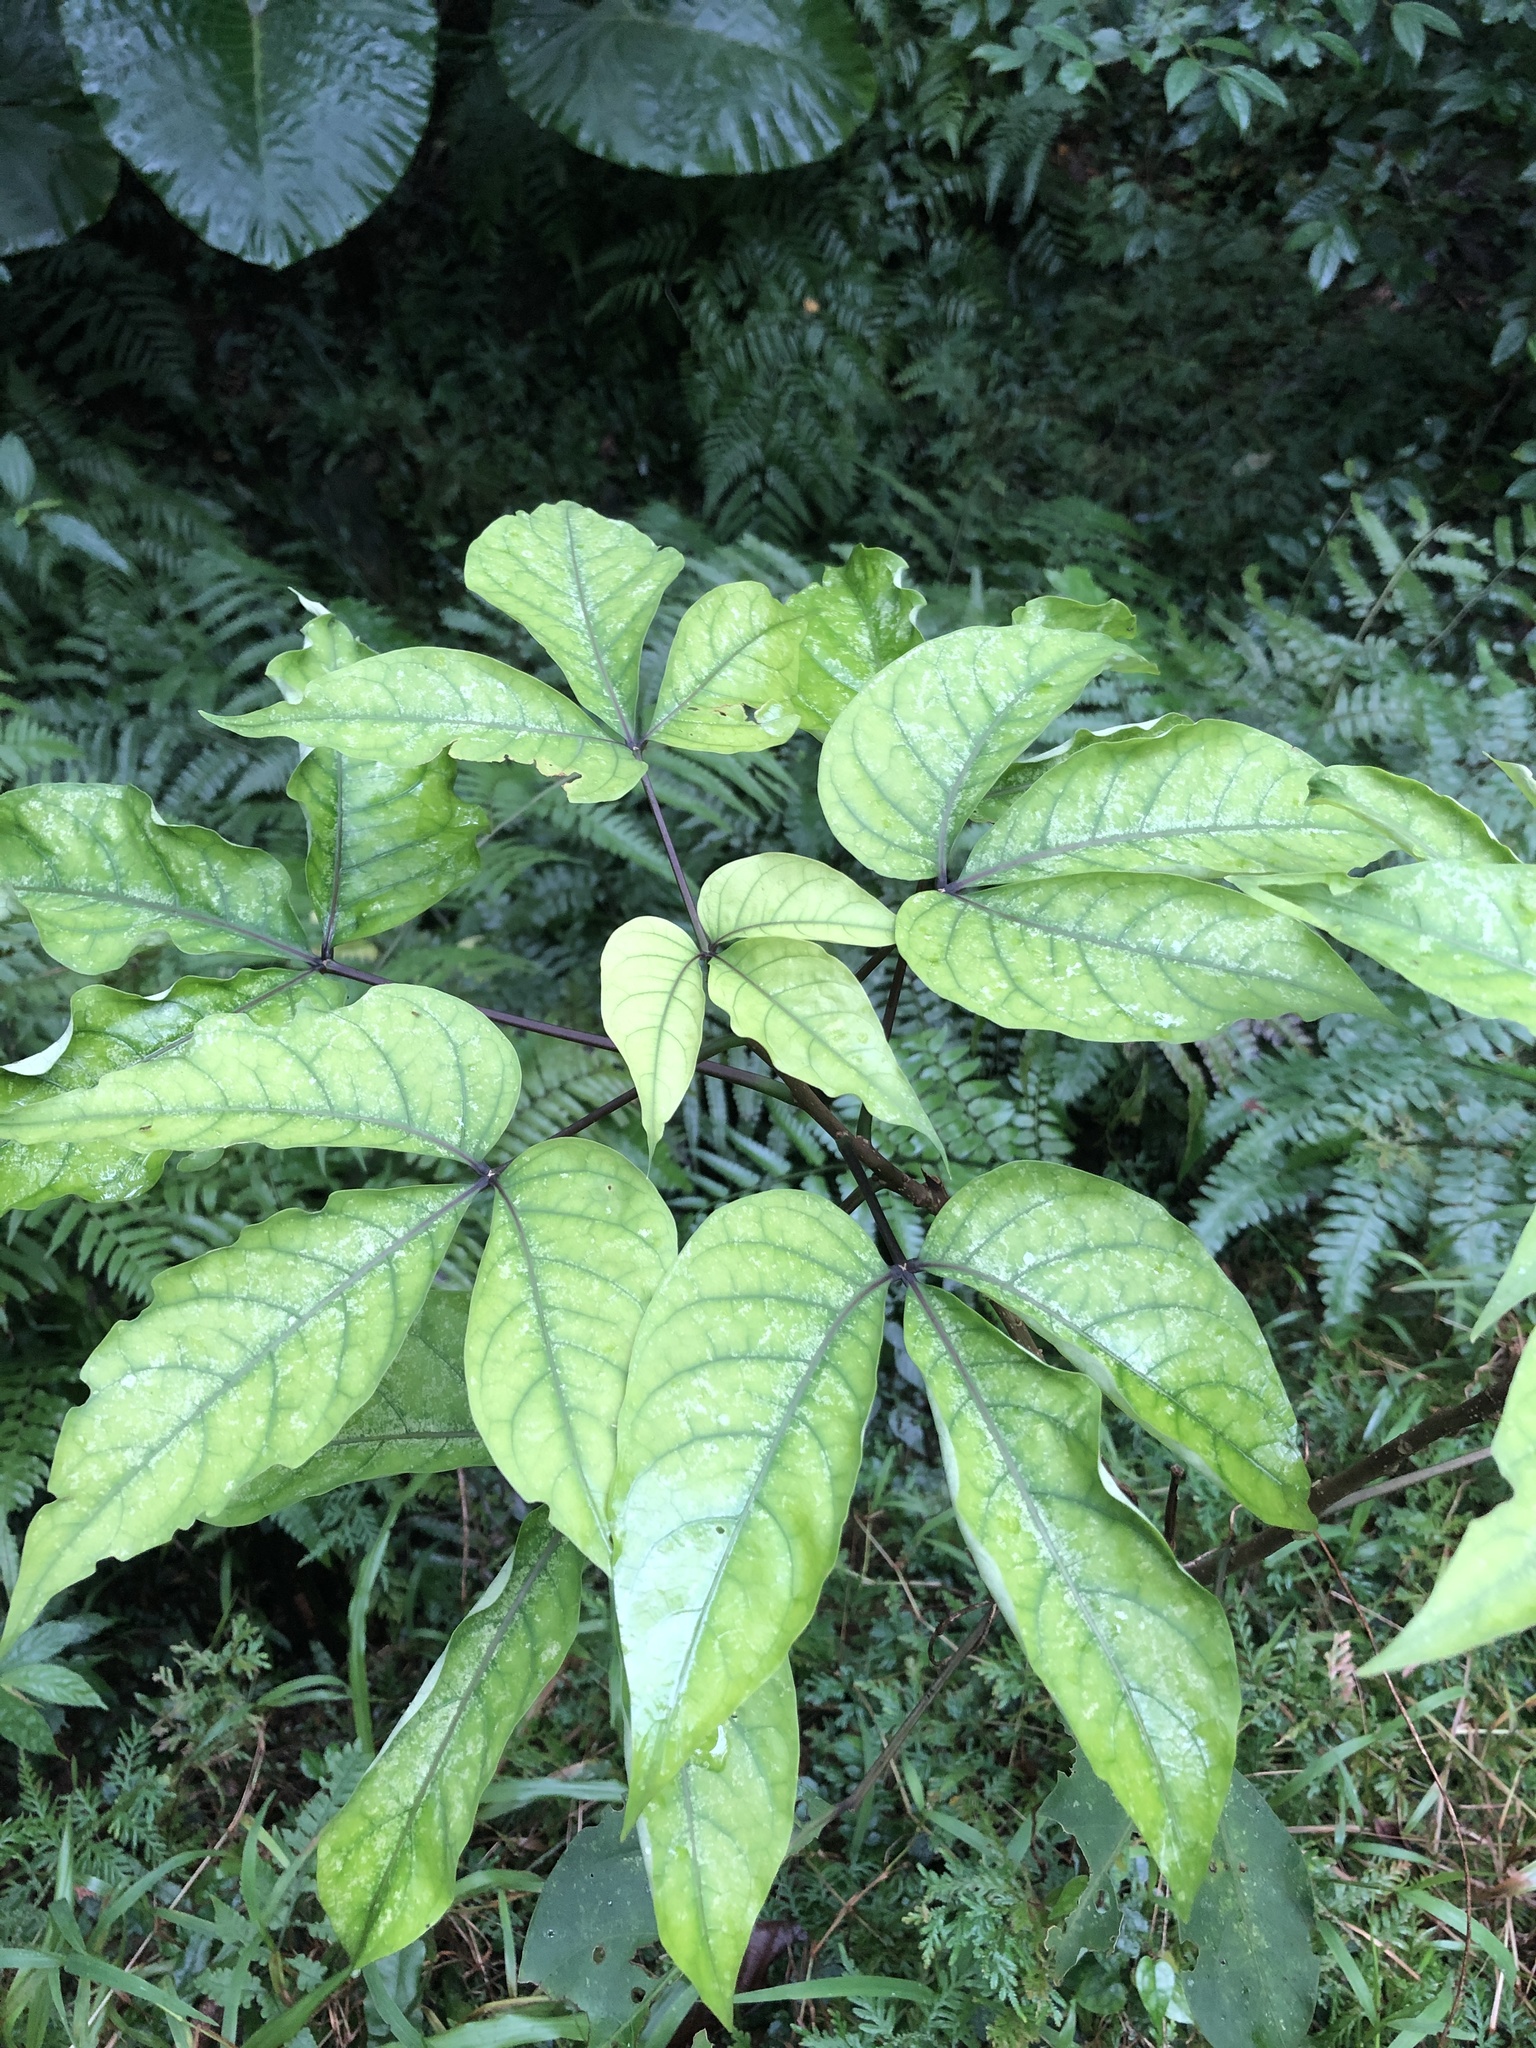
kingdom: Plantae
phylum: Tracheophyta
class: Magnoliopsida
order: Brassicales
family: Capparaceae
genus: Crateva
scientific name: Crateva formosensis
